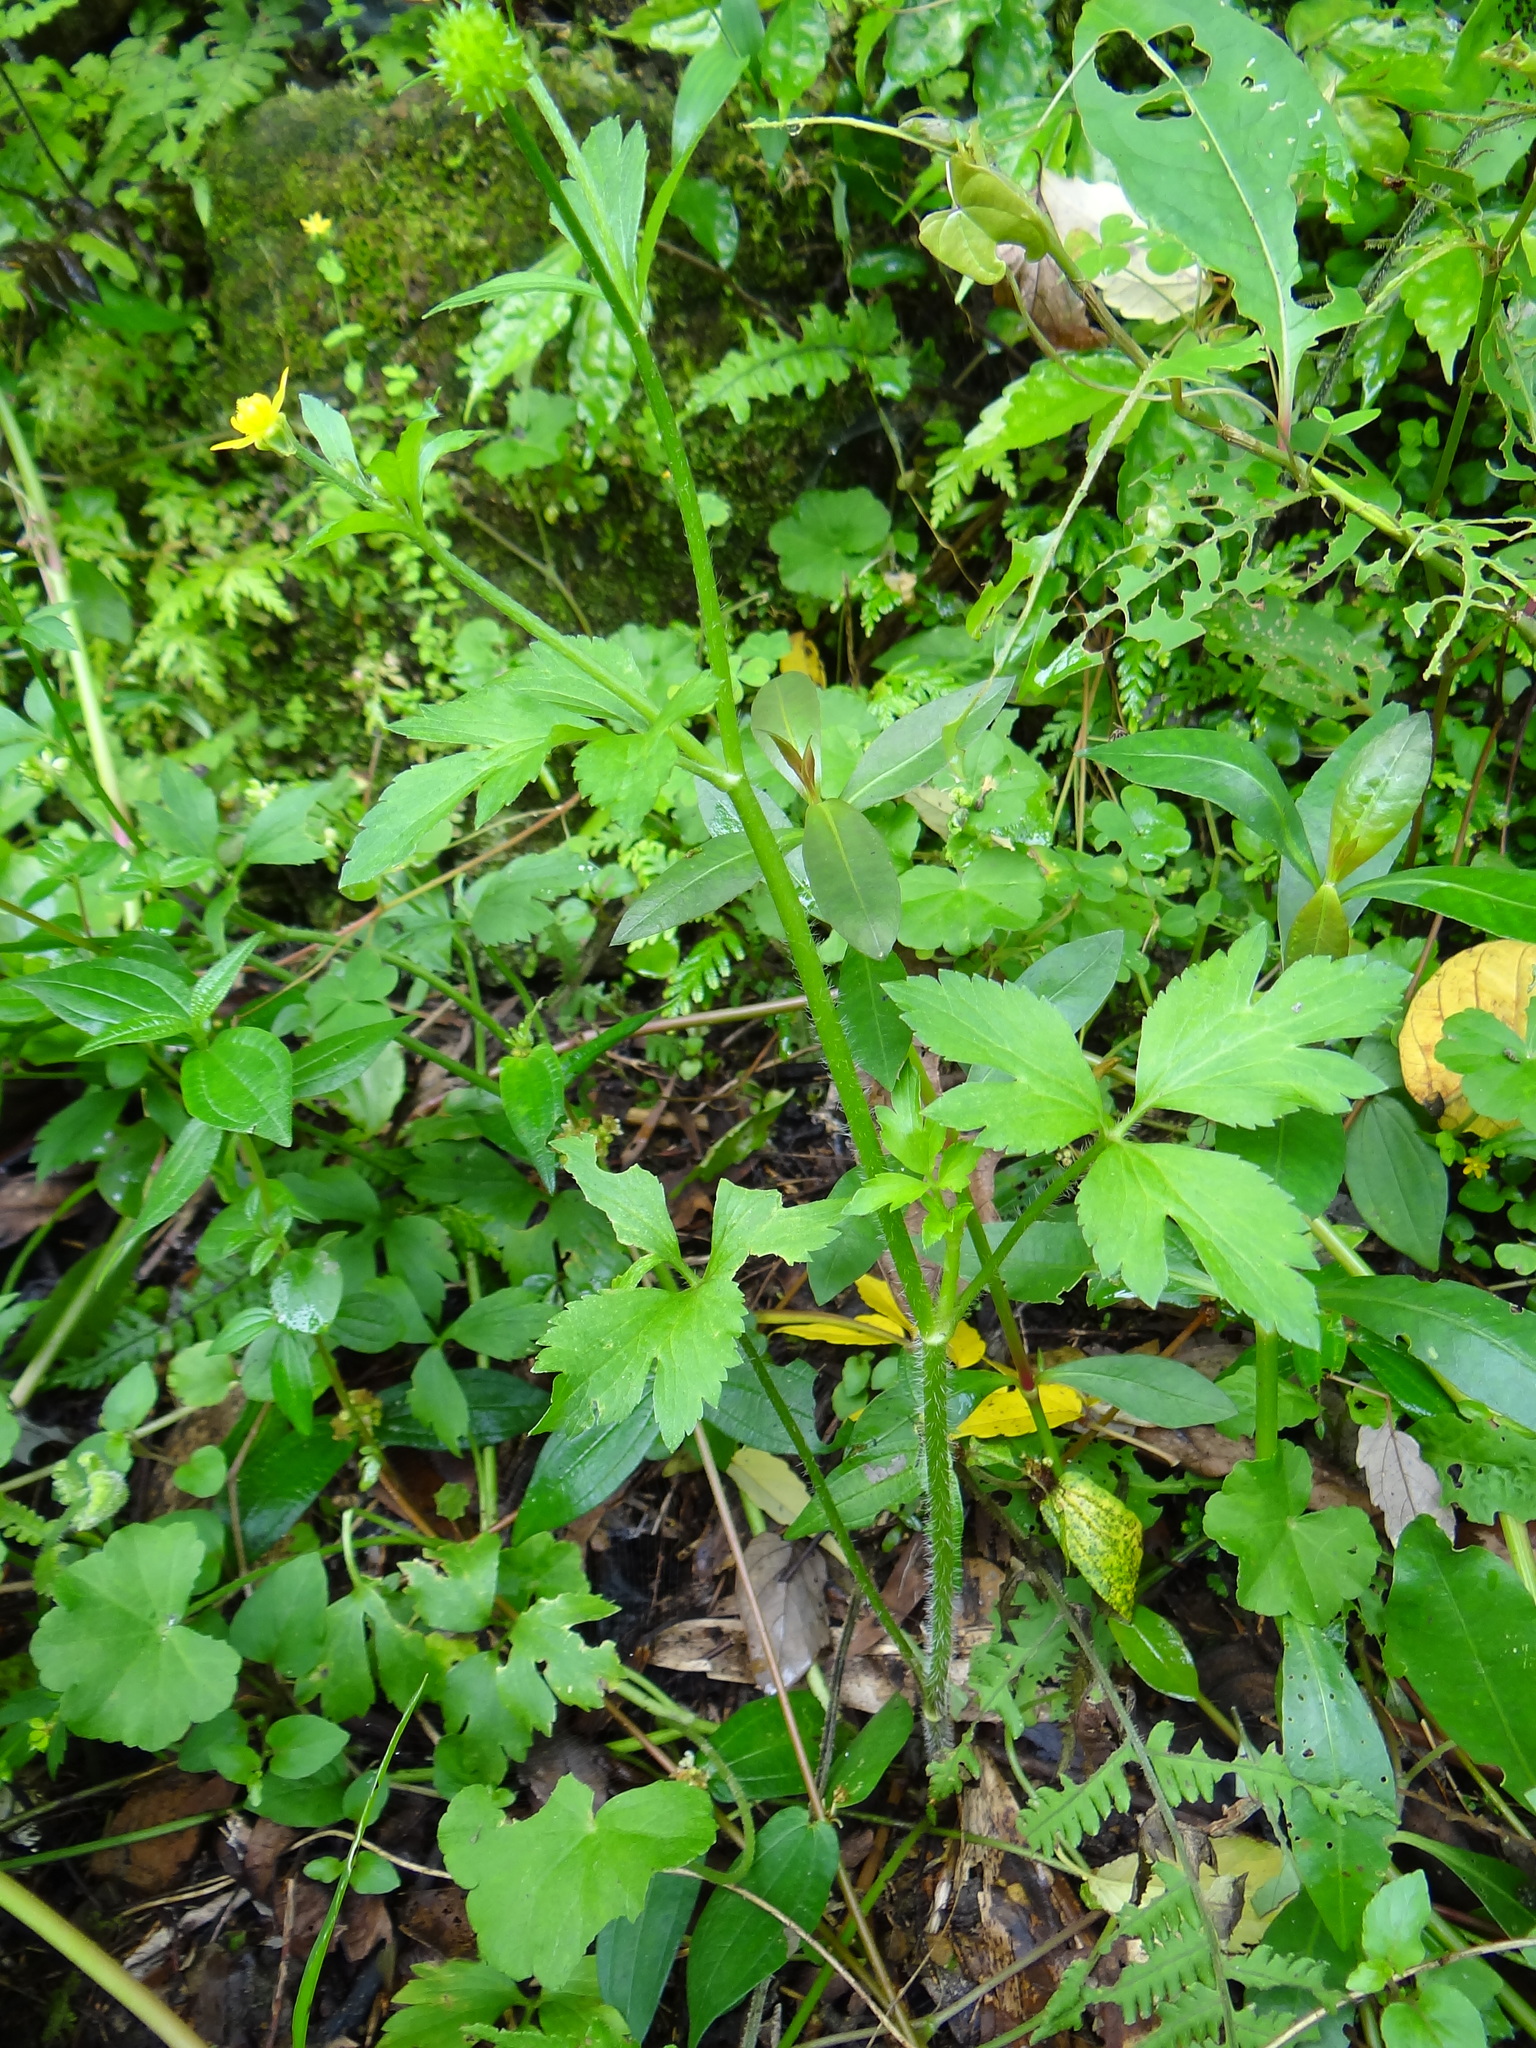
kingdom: Plantae
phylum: Tracheophyta
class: Magnoliopsida
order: Ranunculales
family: Ranunculaceae
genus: Ranunculus
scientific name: Ranunculus cantoniensis
